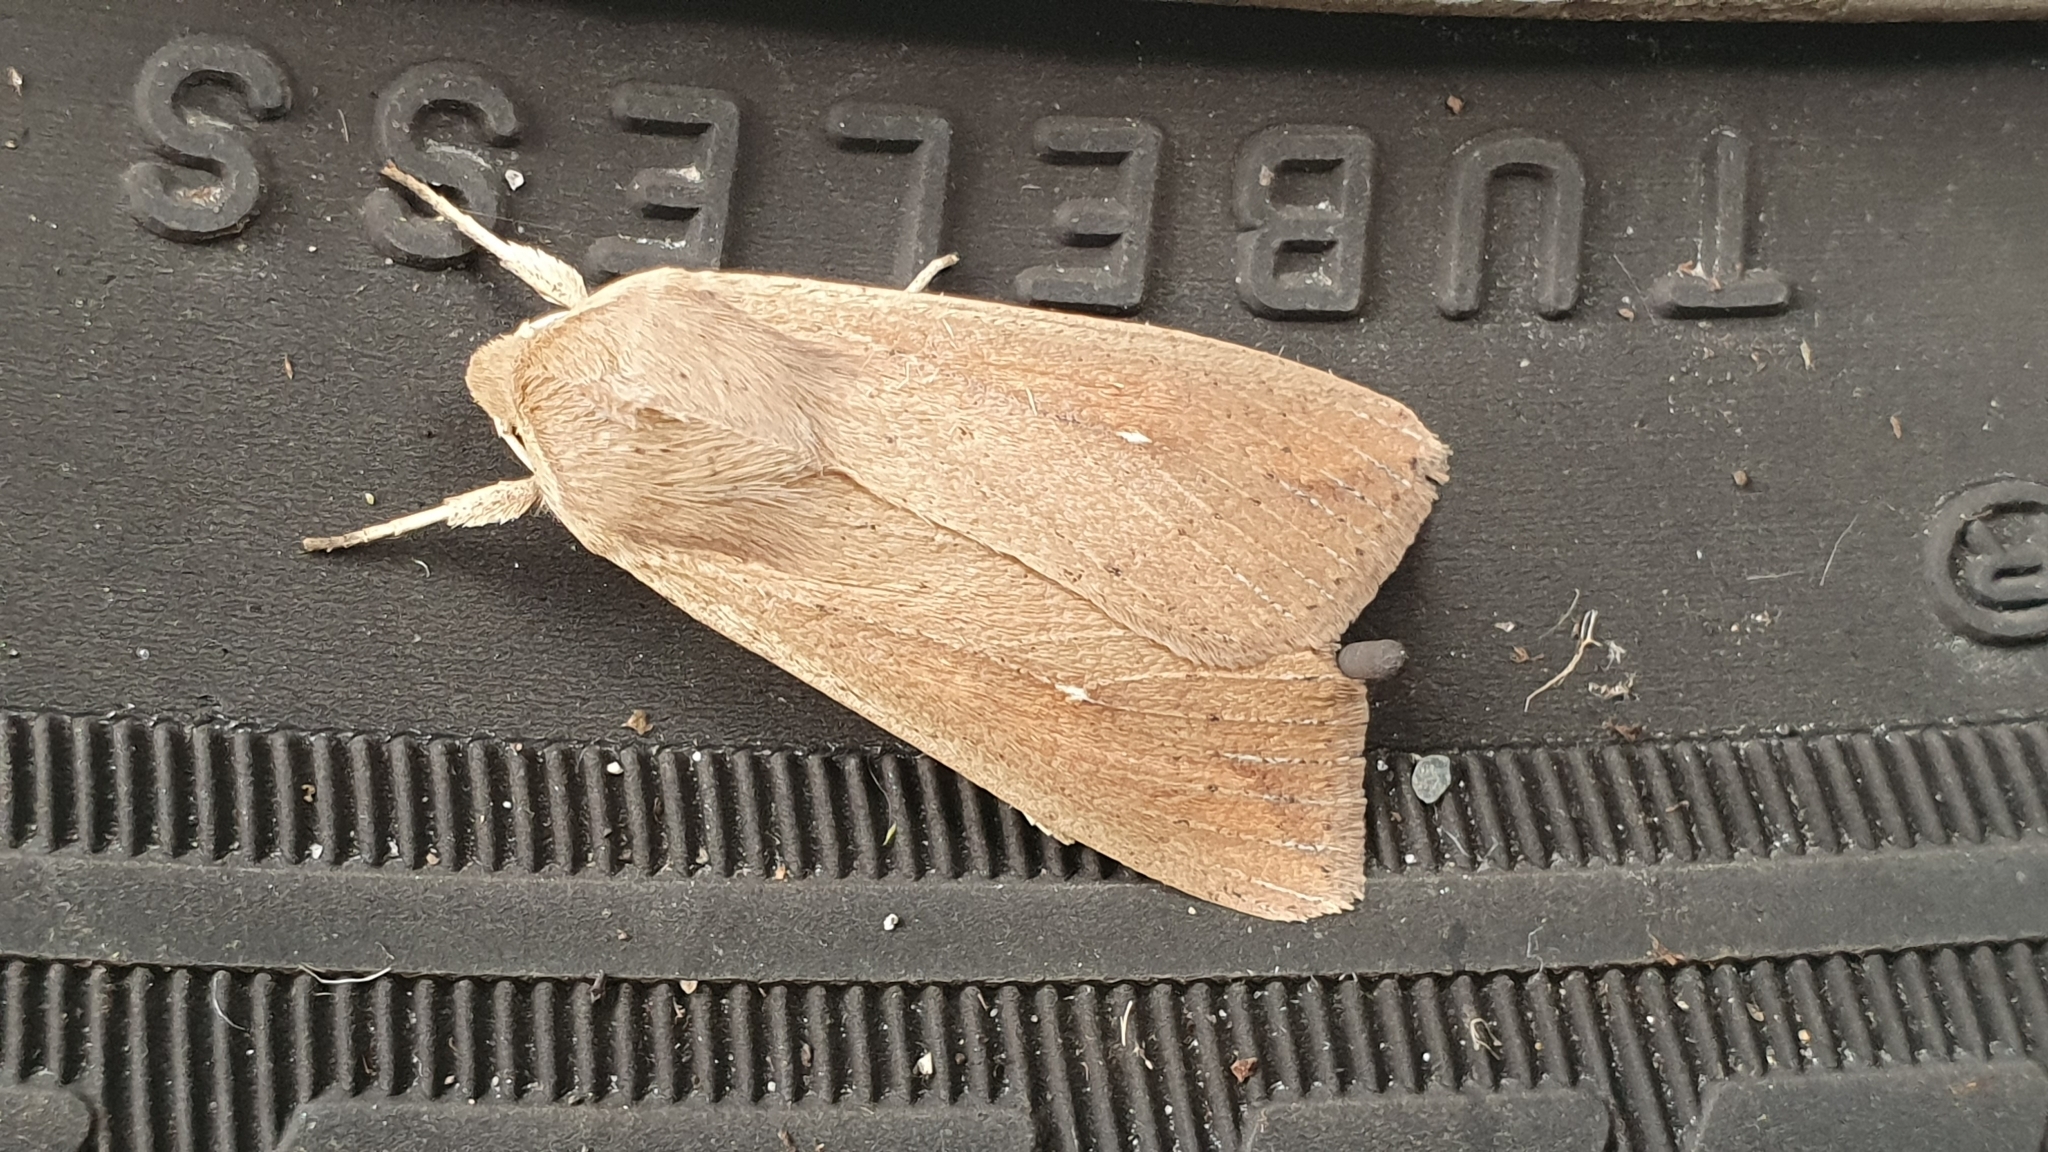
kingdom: Animalia
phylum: Arthropoda
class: Insecta
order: Lepidoptera
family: Noctuidae
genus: Mythimna
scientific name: Mythimna unipuncta
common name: White-speck
